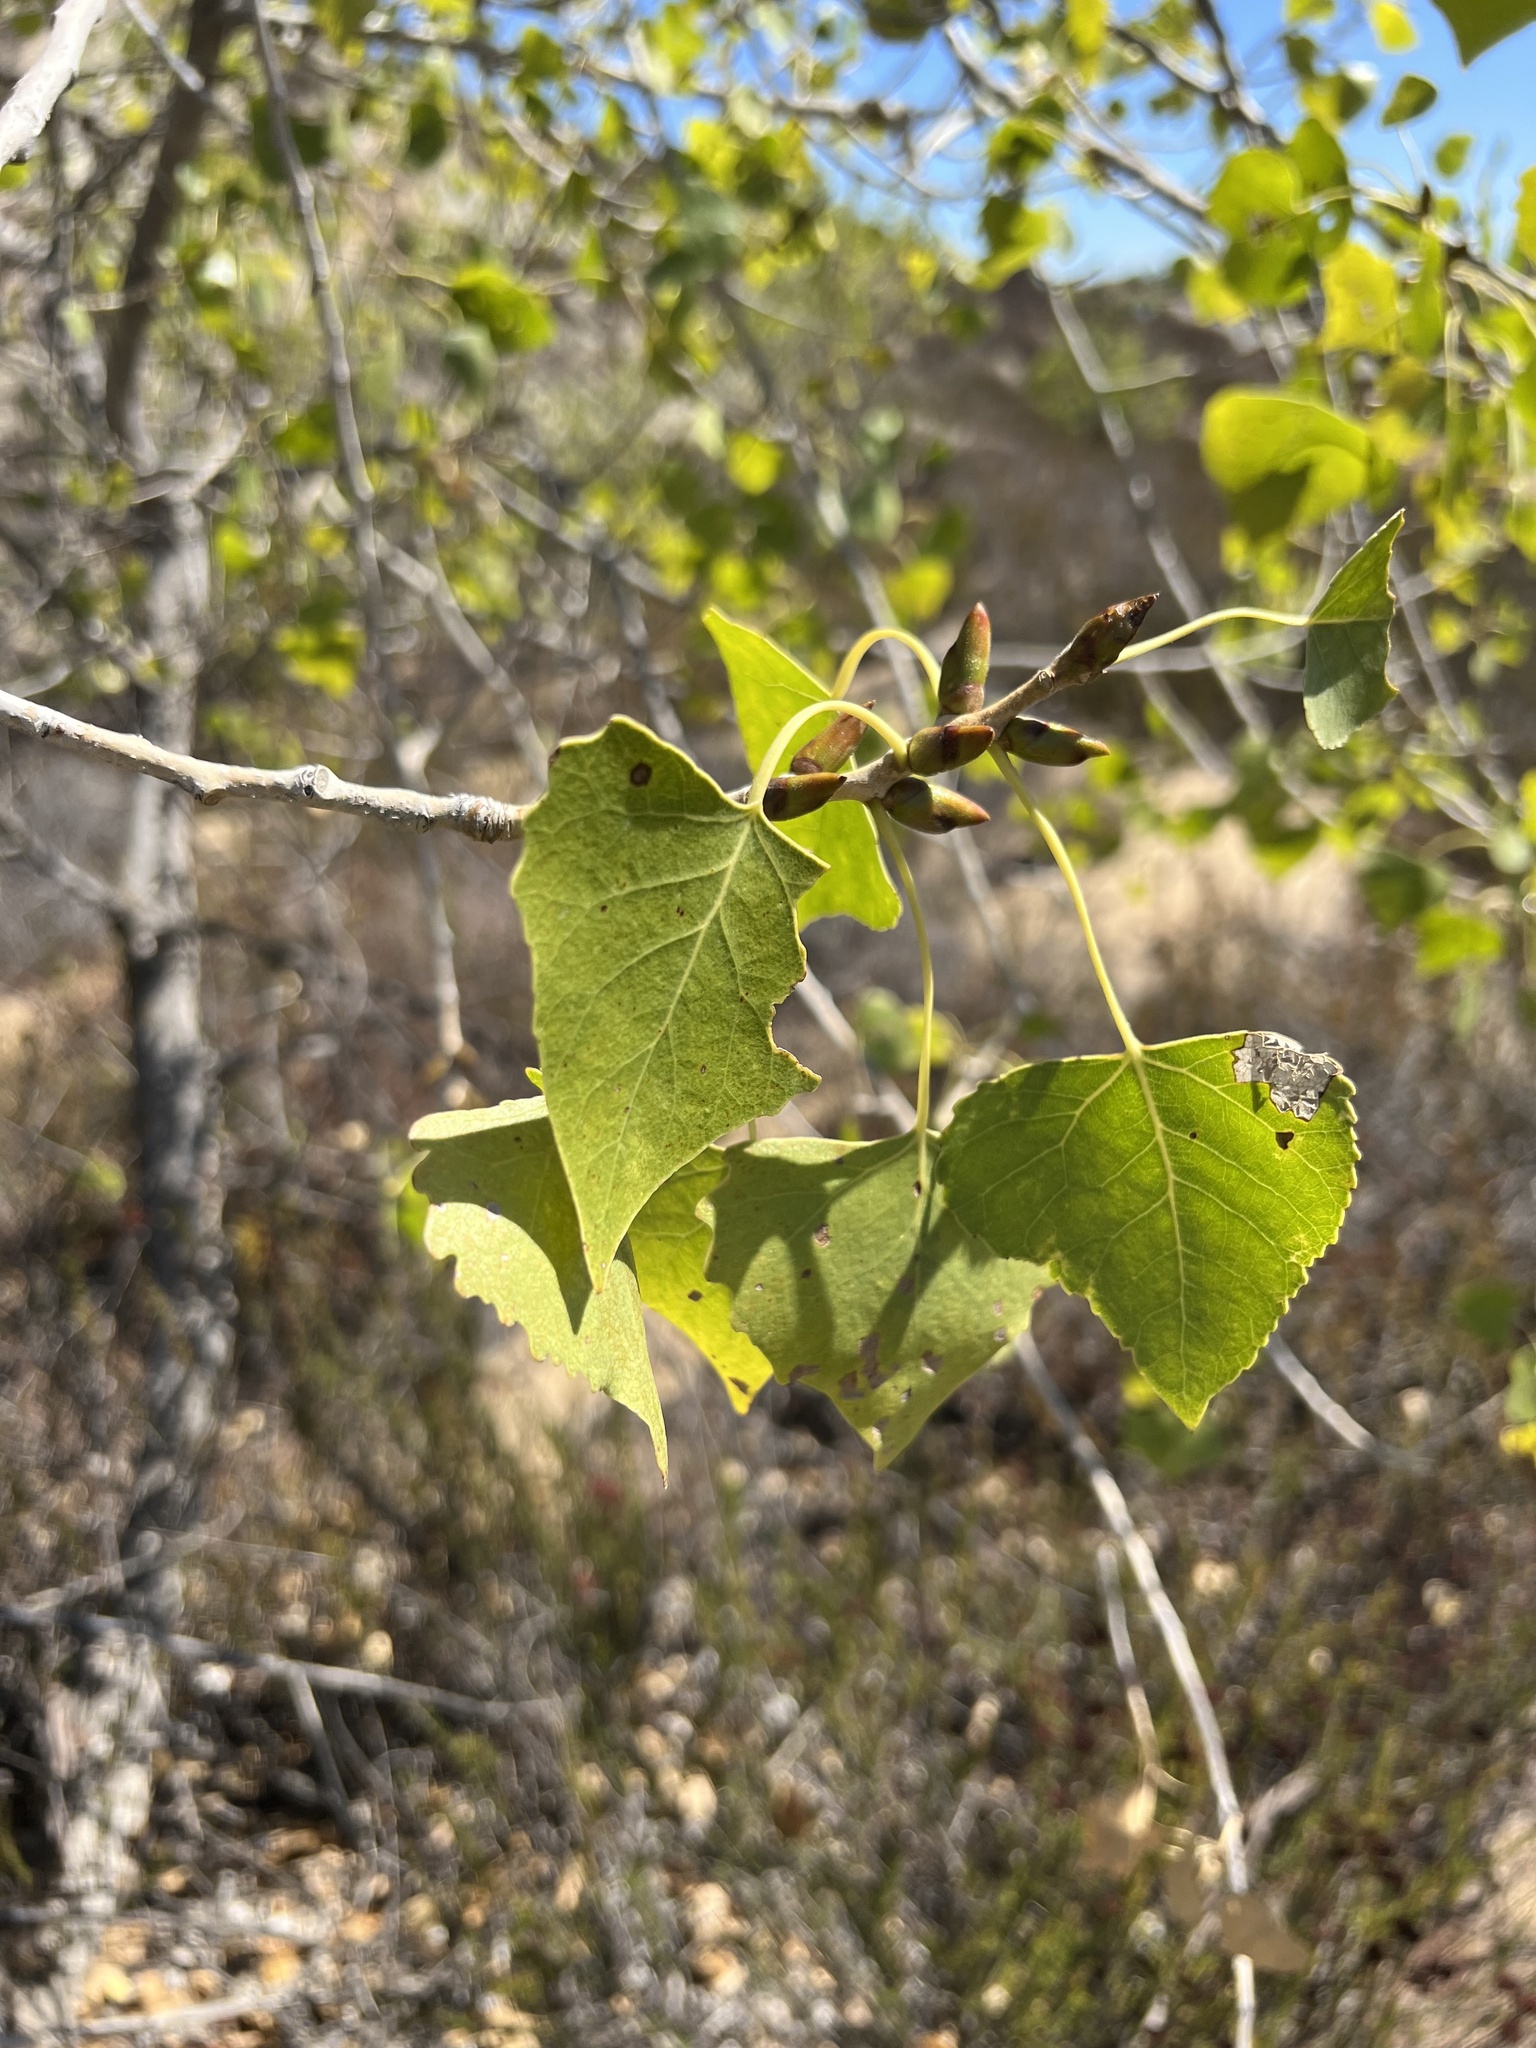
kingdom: Plantae
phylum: Tracheophyta
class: Magnoliopsida
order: Malpighiales
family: Salicaceae
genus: Populus
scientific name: Populus fremontii
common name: Fremont's cottonwood
